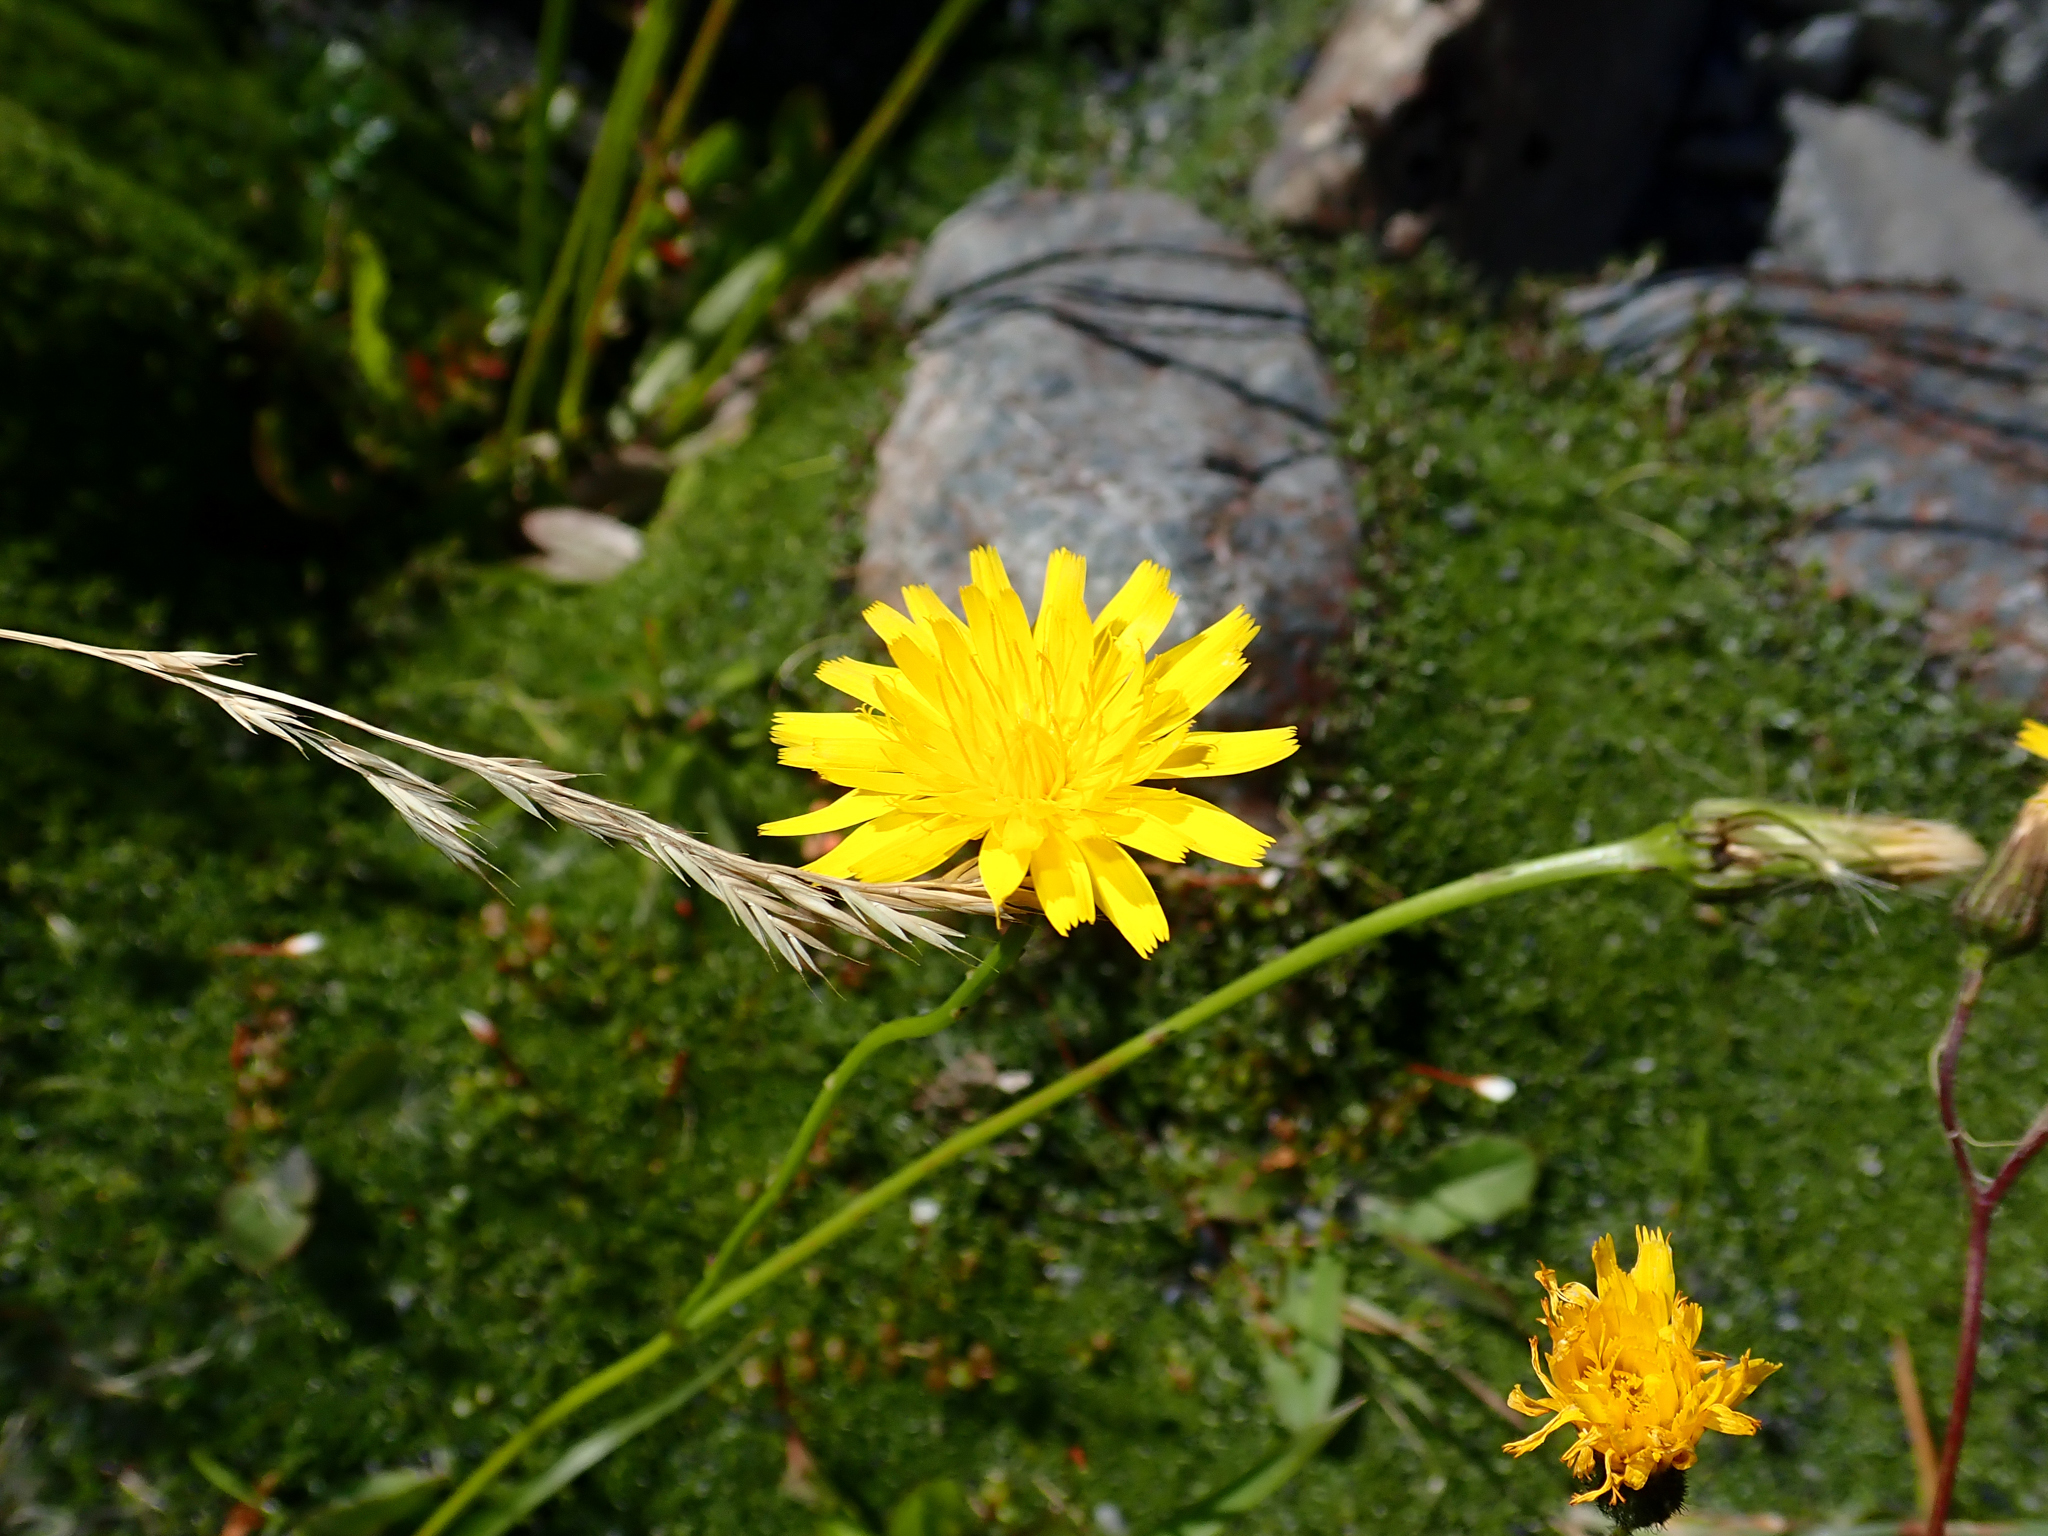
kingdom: Plantae
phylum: Tracheophyta
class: Magnoliopsida
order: Asterales
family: Asteraceae
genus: Hypochaeris
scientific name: Hypochaeris radicata
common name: Flatweed
